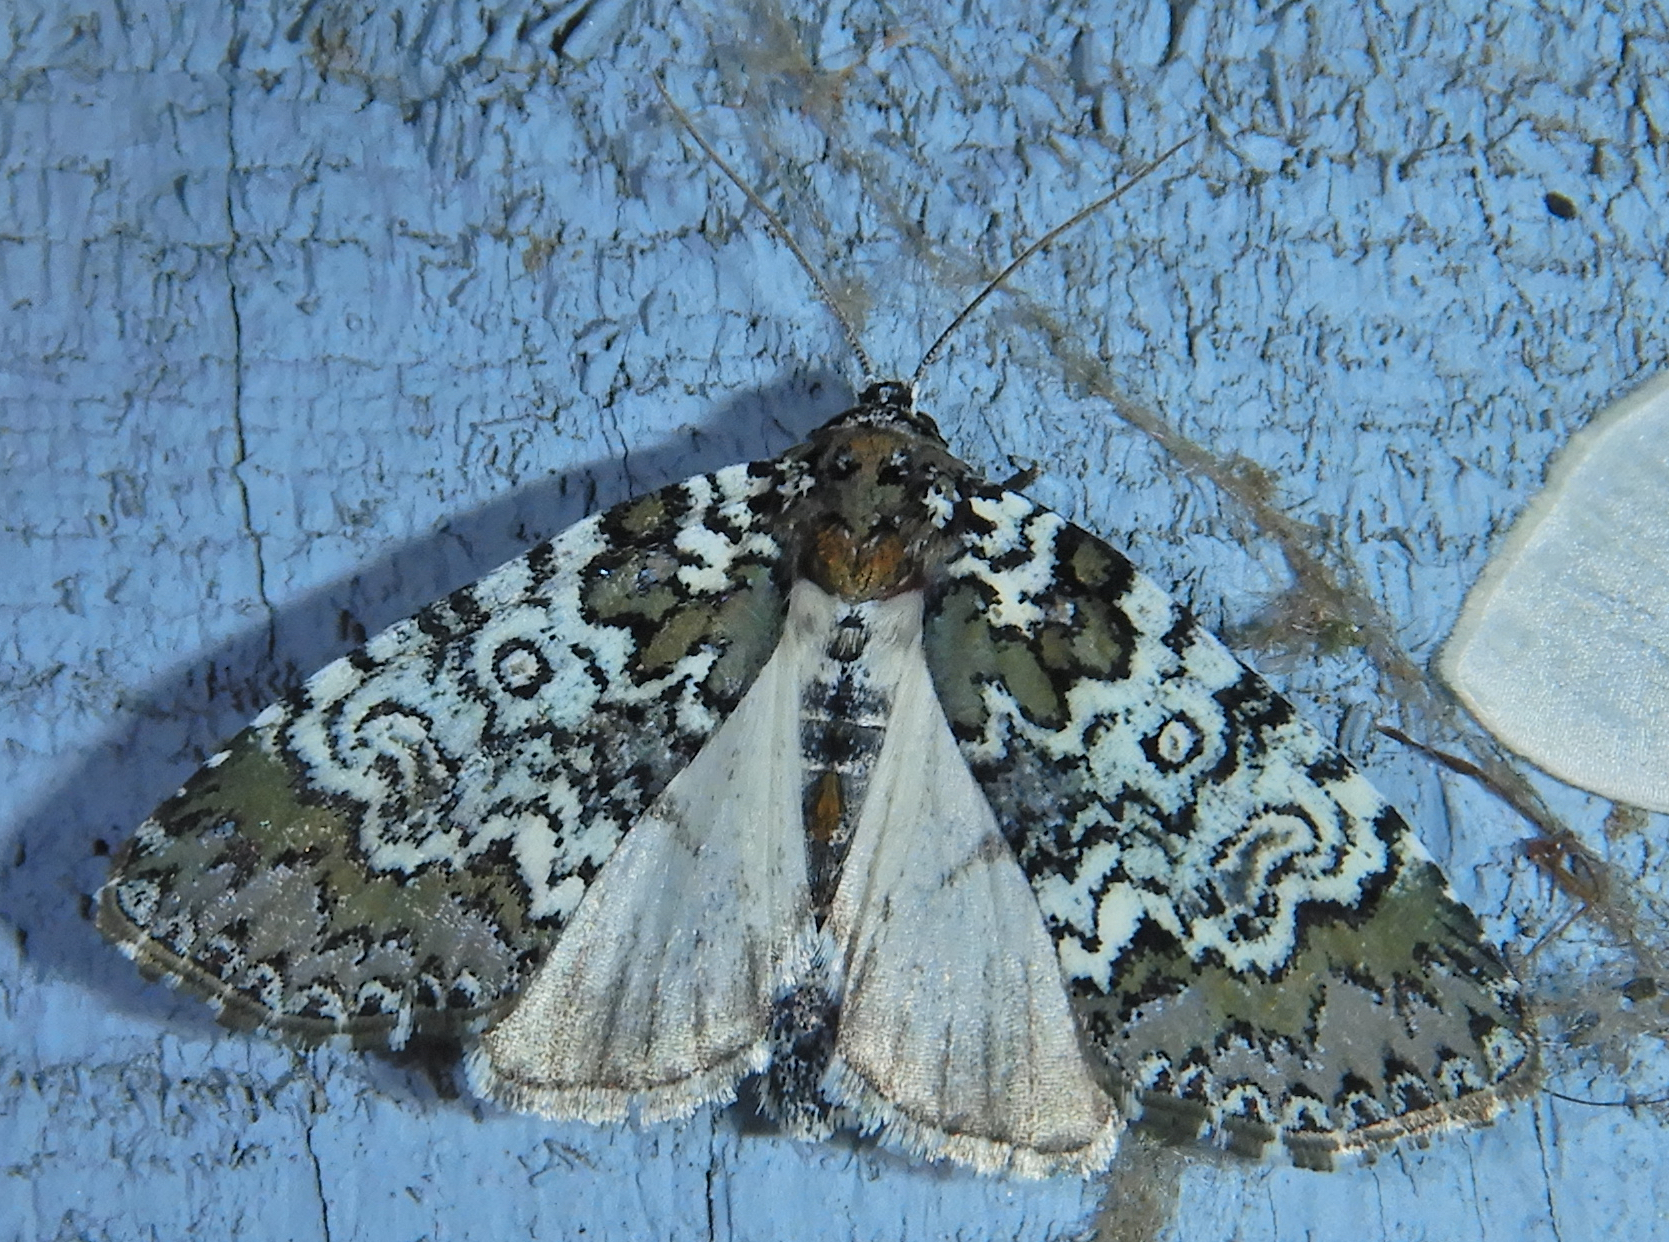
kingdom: Animalia
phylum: Arthropoda
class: Insecta
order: Lepidoptera
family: Noctuidae
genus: Cerma
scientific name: Cerma cora
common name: Bird dropping moth
